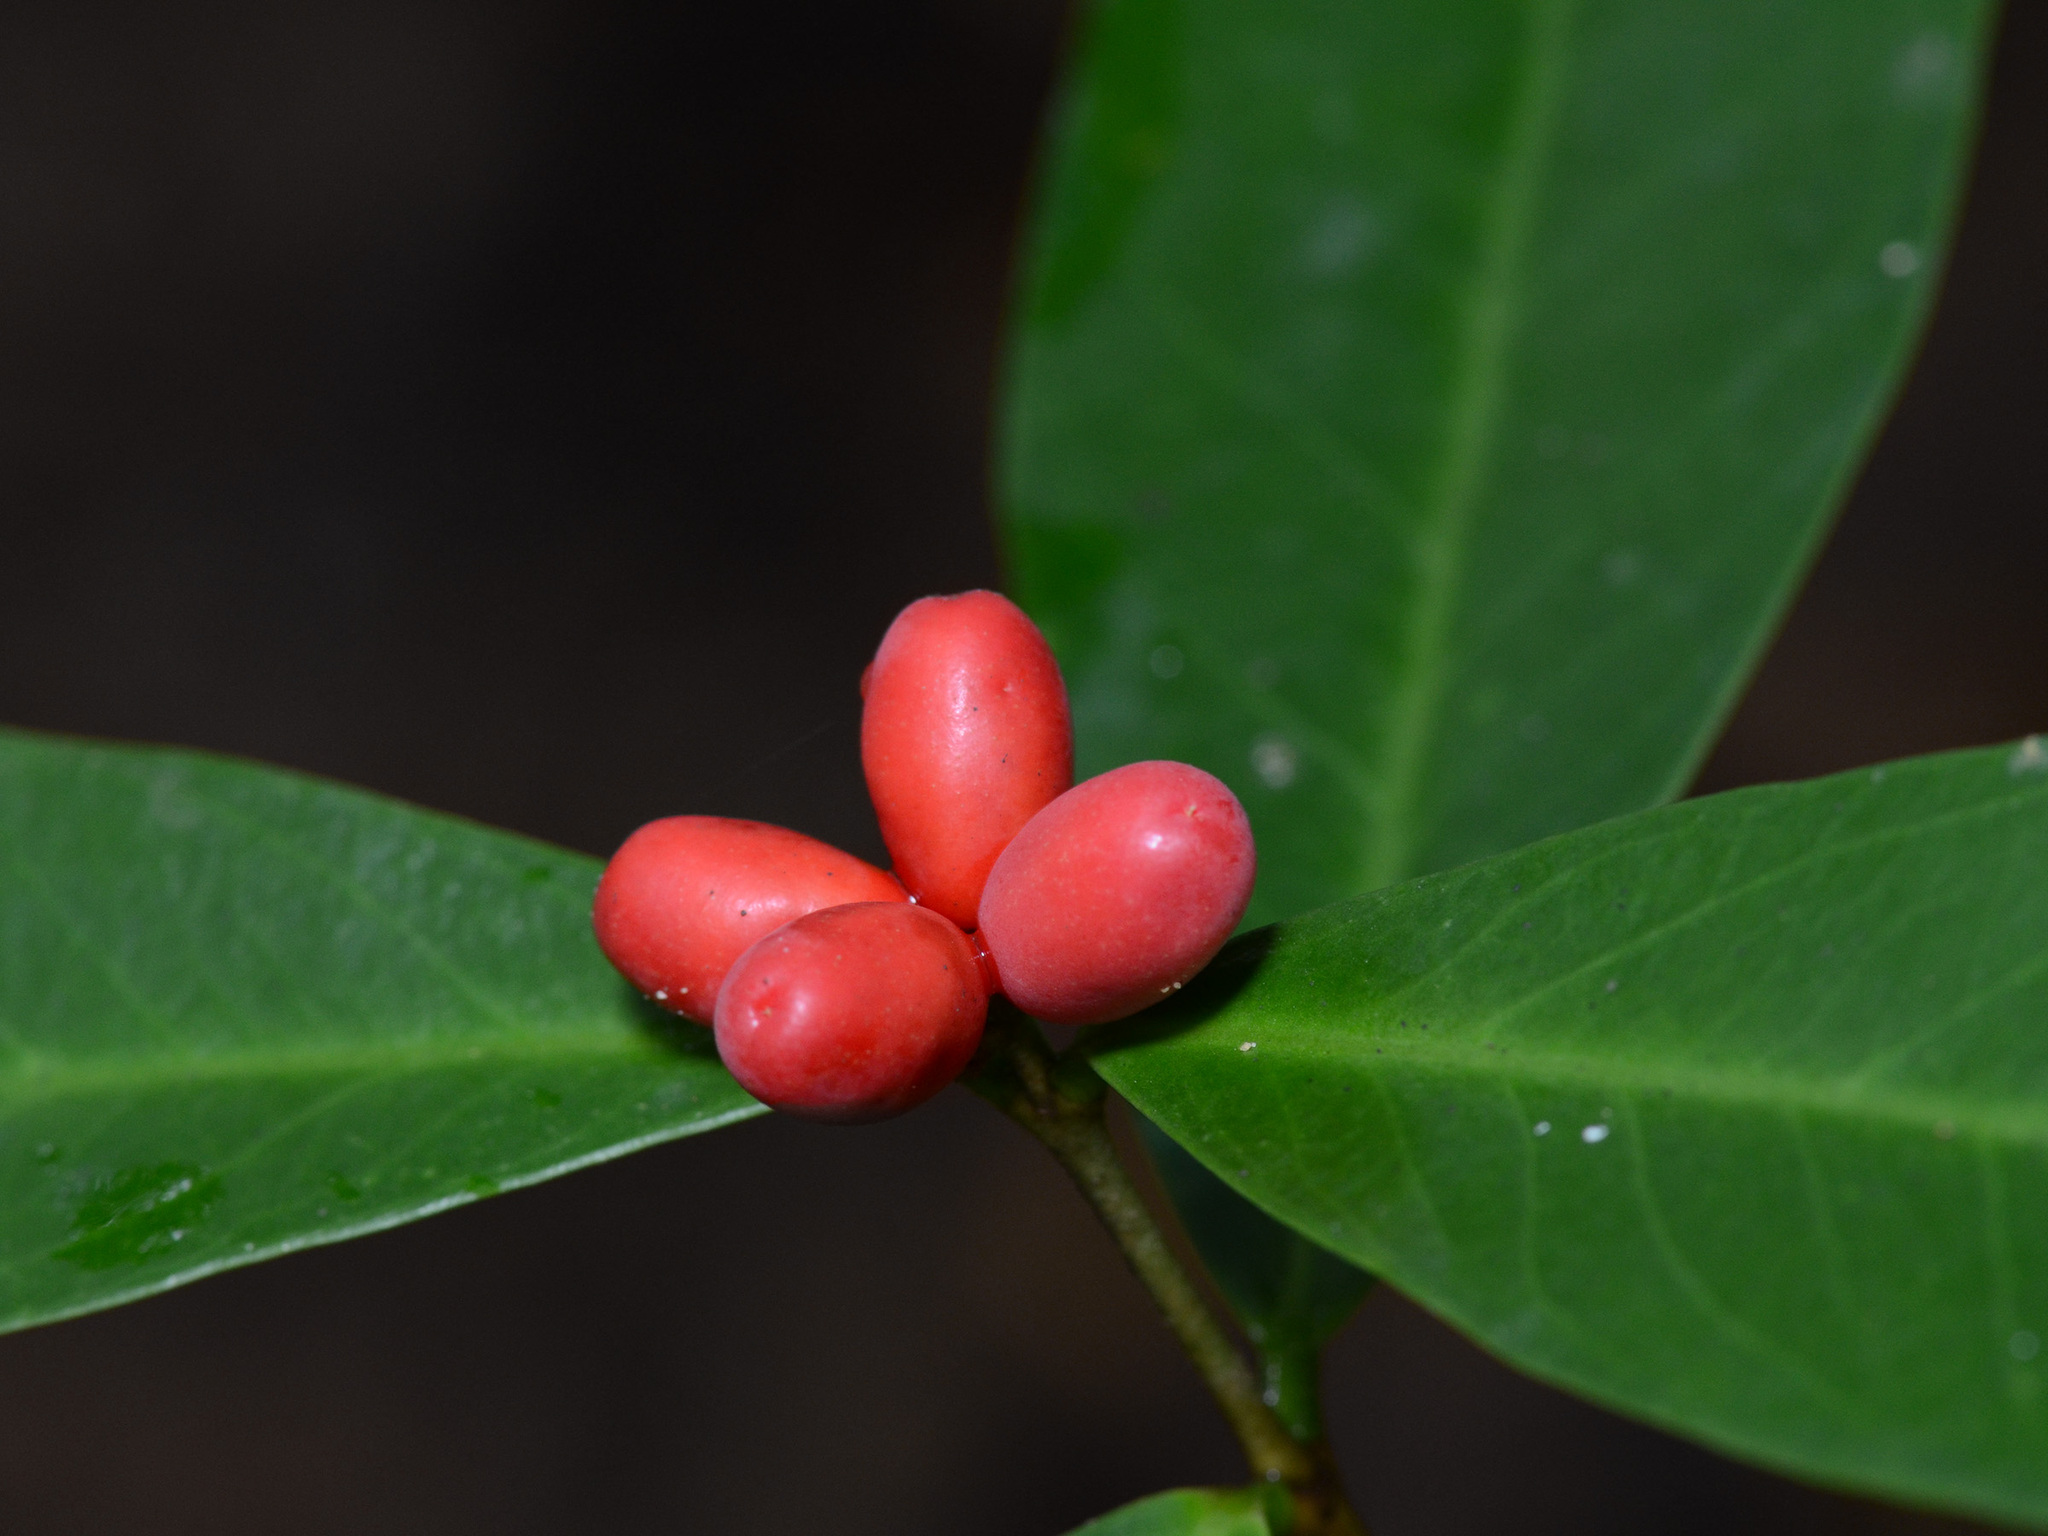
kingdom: Plantae
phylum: Tracheophyta
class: Magnoliopsida
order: Malvales
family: Thymelaeaceae
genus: Wikstroemia
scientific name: Wikstroemia ridleyi
